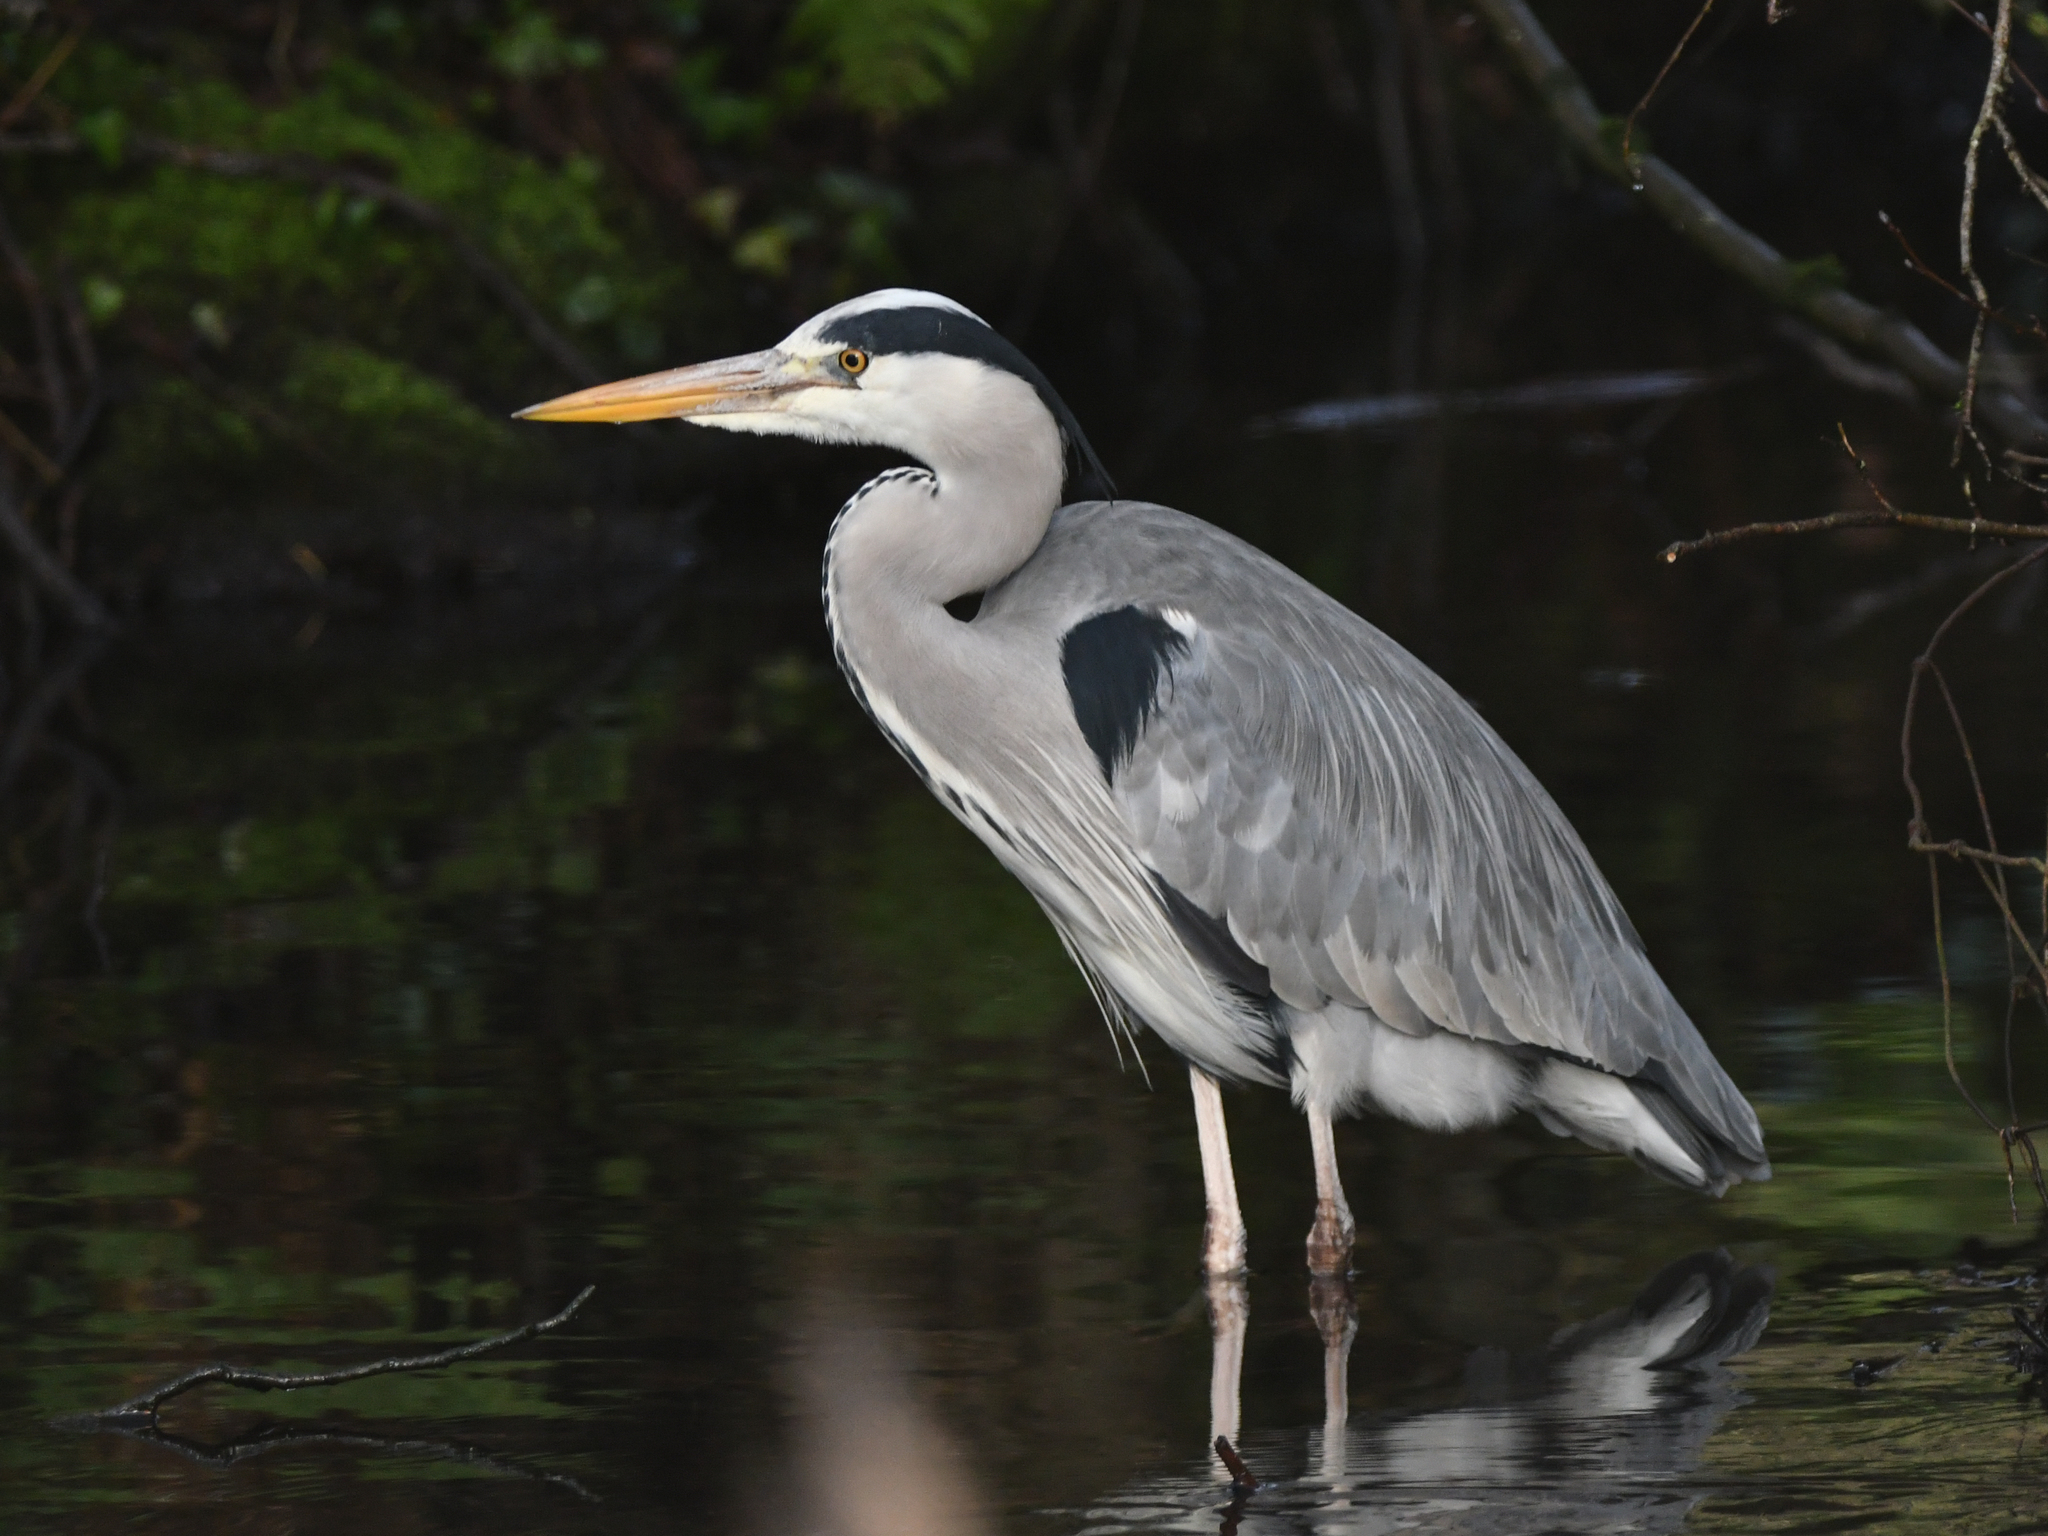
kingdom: Animalia
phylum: Chordata
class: Aves
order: Pelecaniformes
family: Ardeidae
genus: Ardea
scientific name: Ardea cinerea
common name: Grey heron
